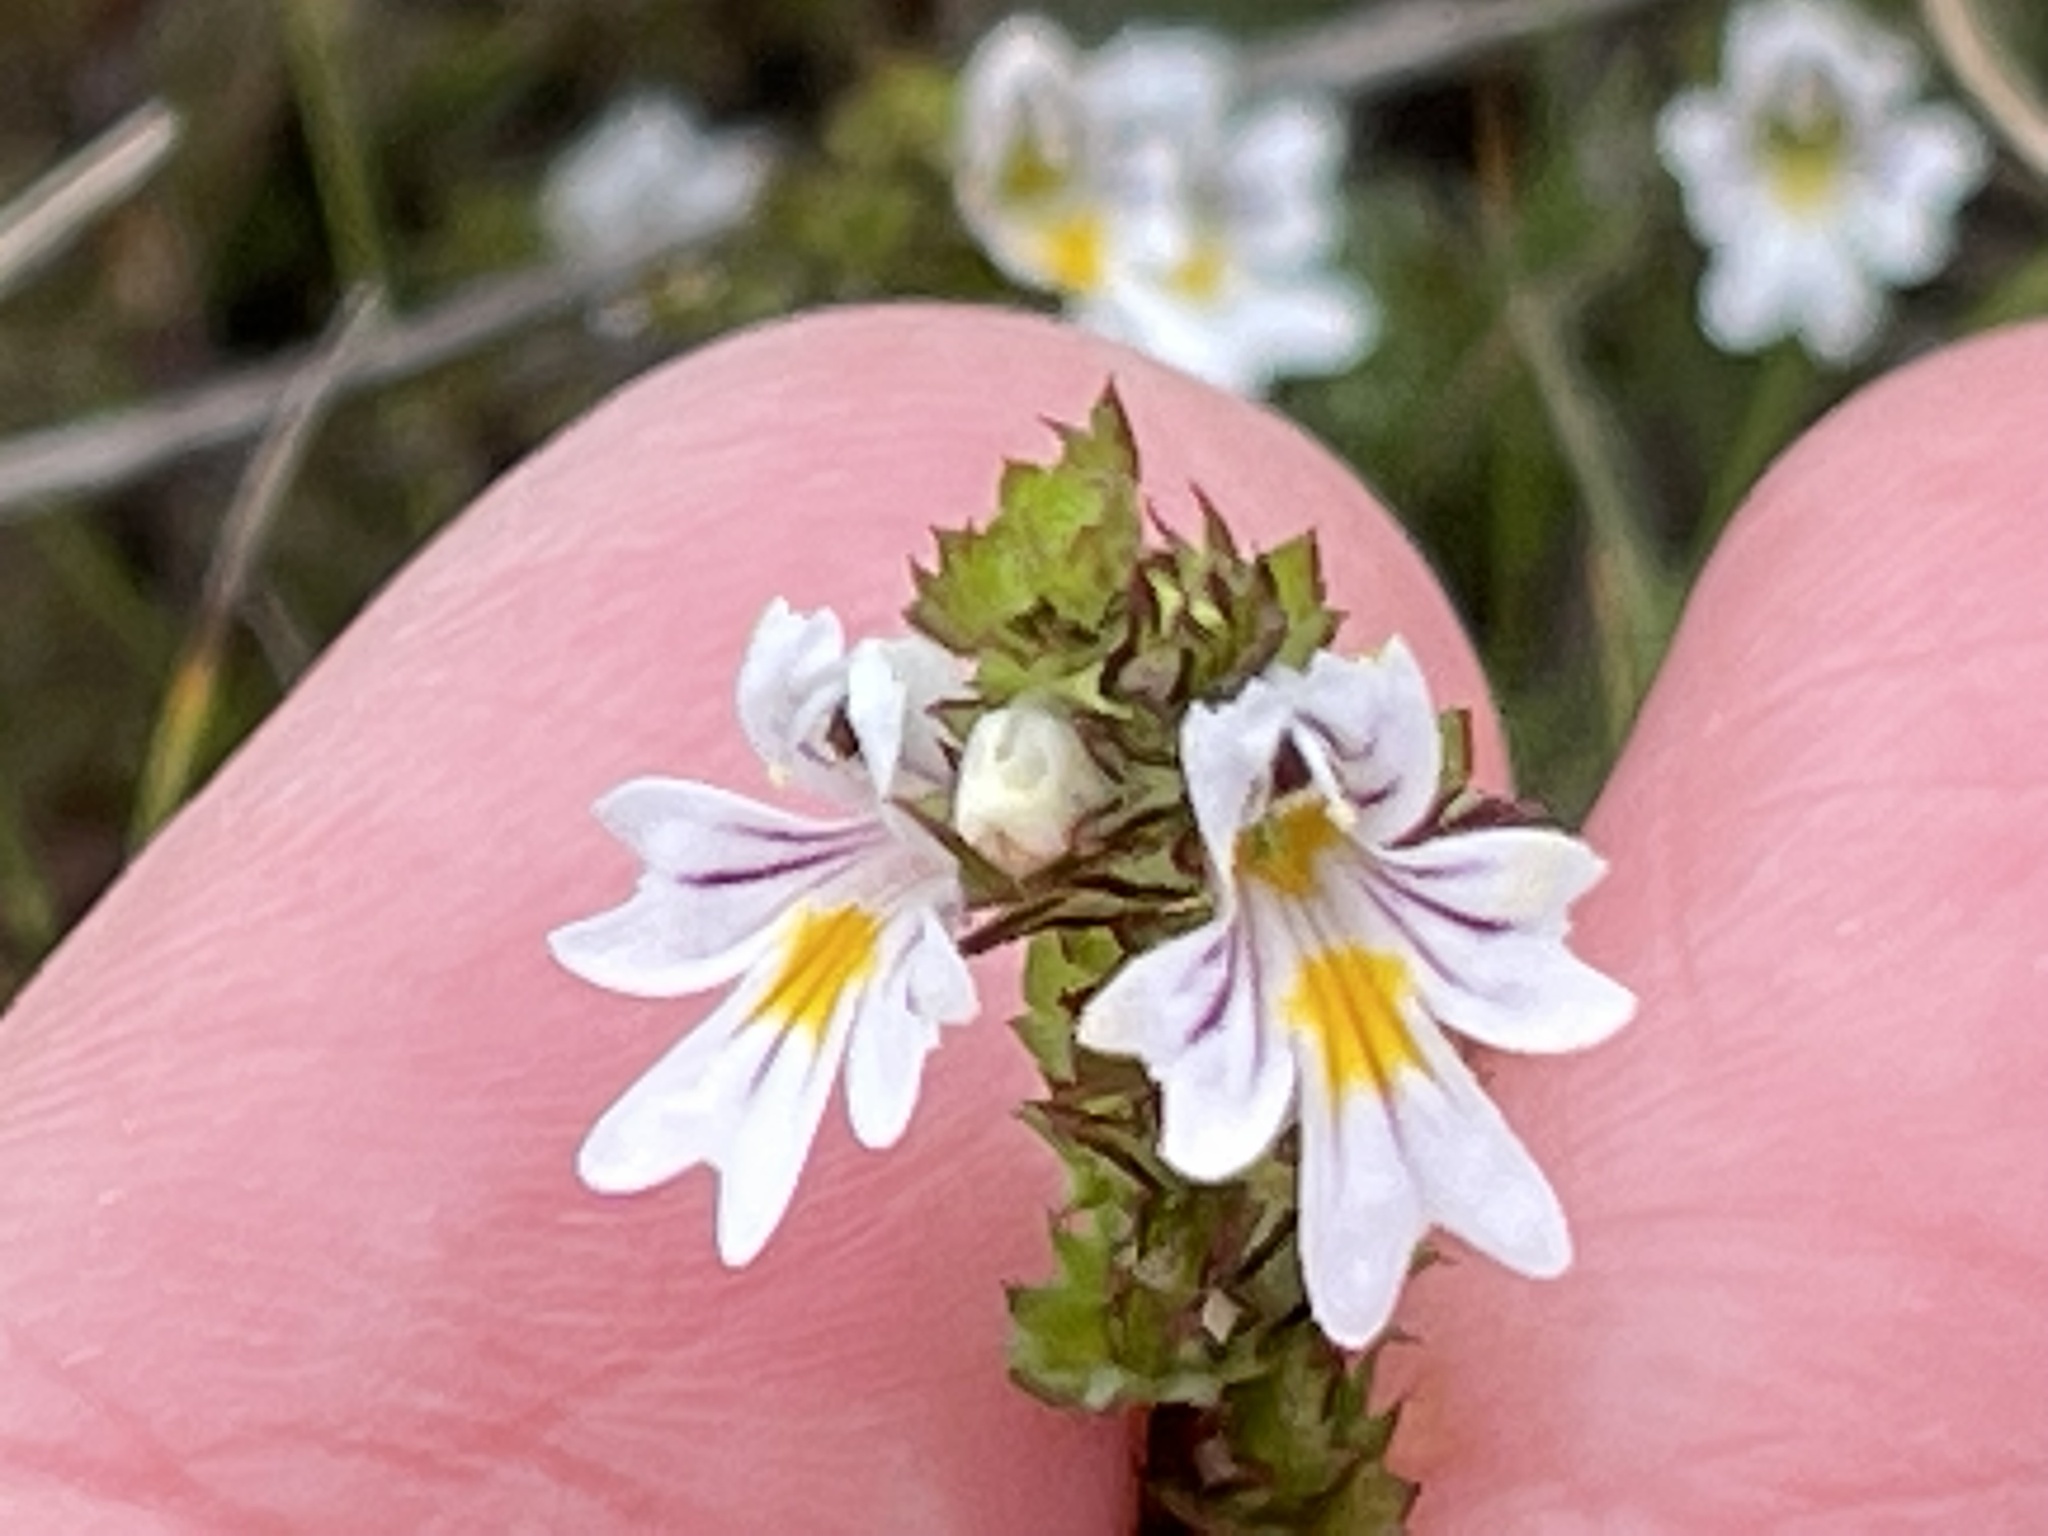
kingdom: Plantae
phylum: Tracheophyta
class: Magnoliopsida
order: Lamiales
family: Orobanchaceae
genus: Euphrasia
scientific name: Euphrasia nemorosa
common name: Common eyebright
